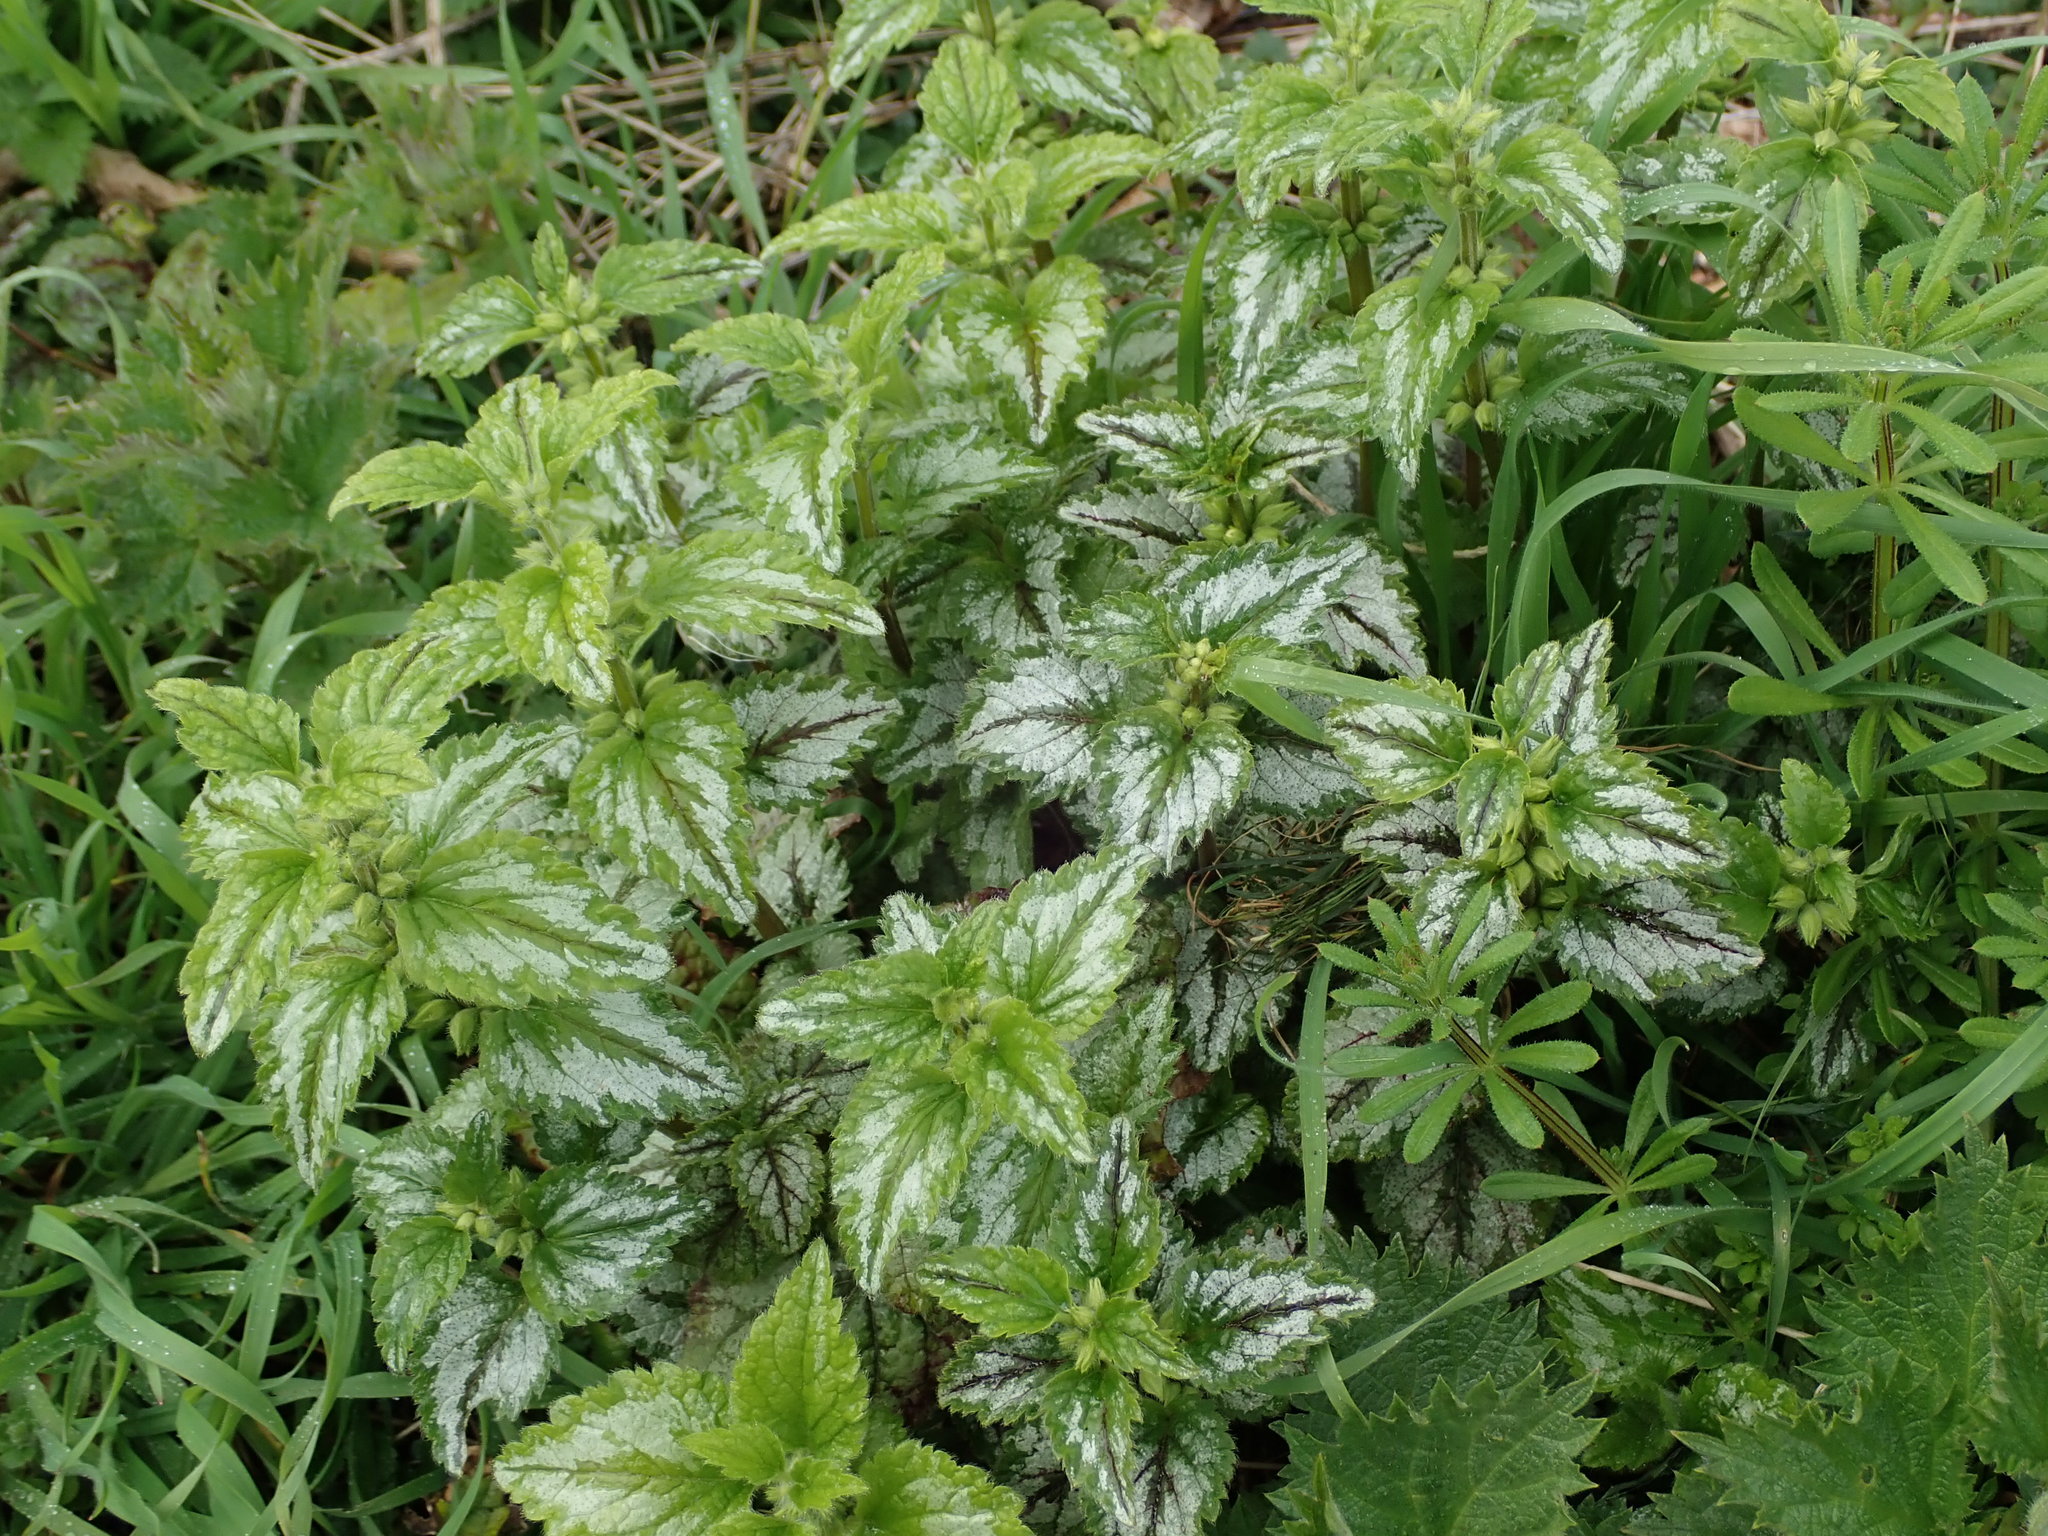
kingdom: Plantae
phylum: Tracheophyta
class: Magnoliopsida
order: Lamiales
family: Lamiaceae
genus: Lamium
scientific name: Lamium galeobdolon
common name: Yellow archangel
